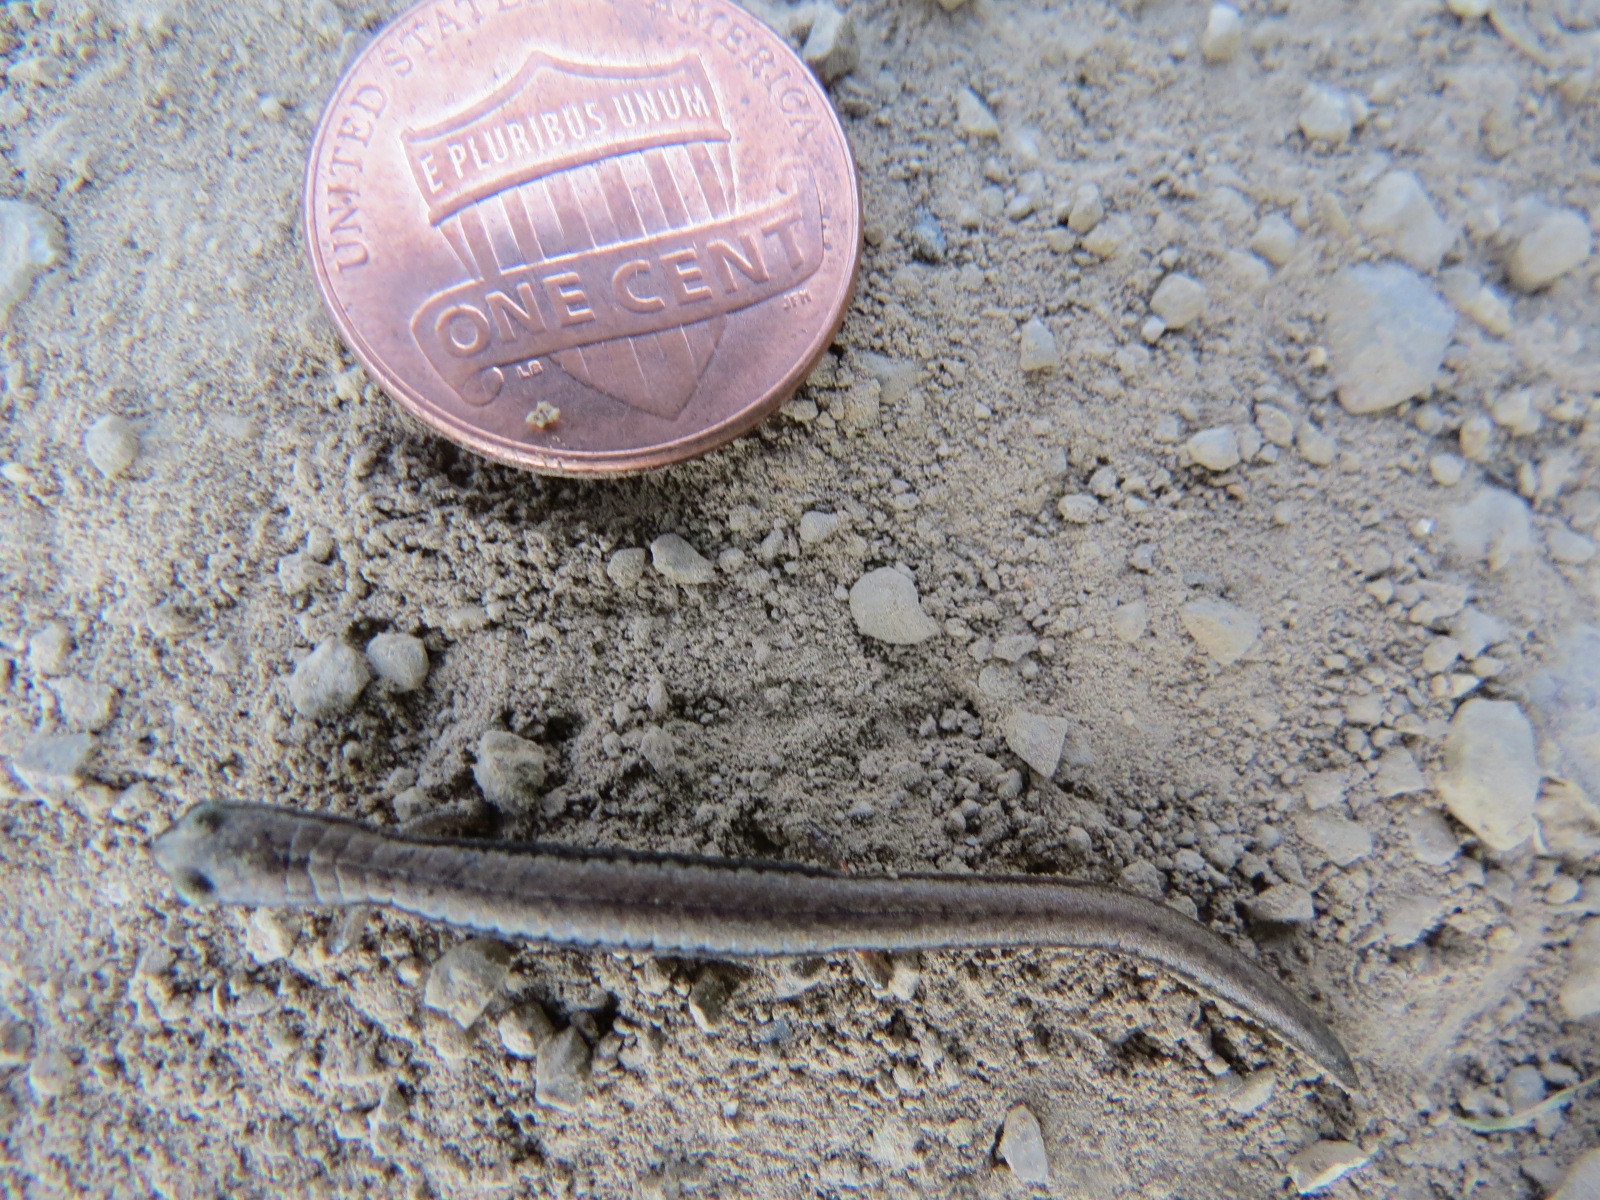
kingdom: Animalia
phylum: Chordata
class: Amphibia
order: Caudata
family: Plethodontidae
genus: Batrachoseps
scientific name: Batrachoseps attenuatus
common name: California slender salamander
